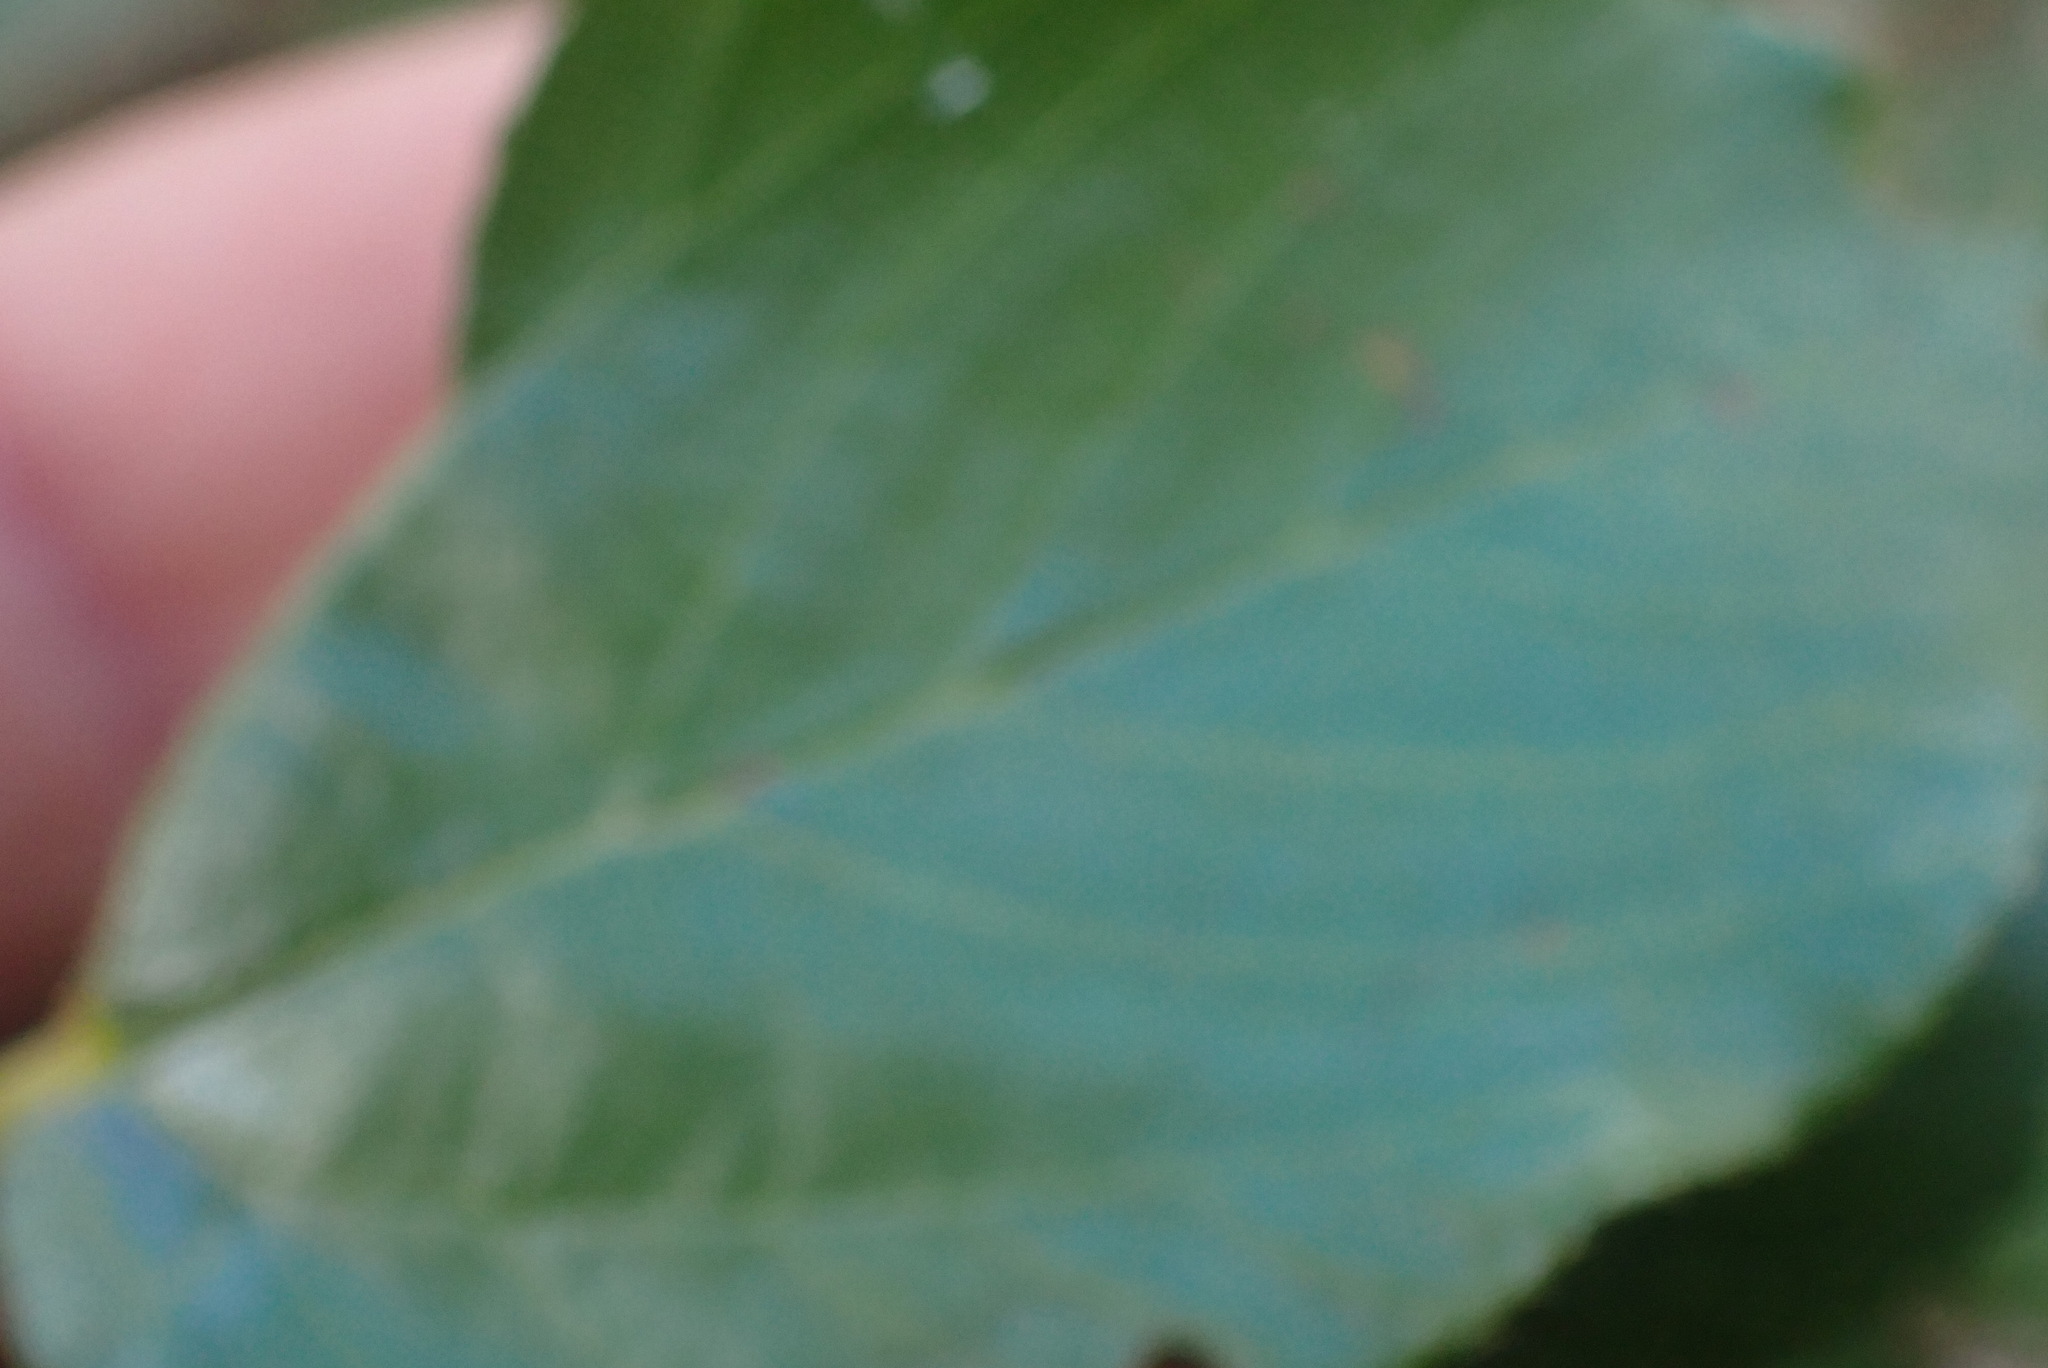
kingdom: Plantae
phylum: Tracheophyta
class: Magnoliopsida
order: Rosales
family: Rhamnaceae
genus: Ceanothus
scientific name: Ceanothus sanguineus
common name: Teatree
